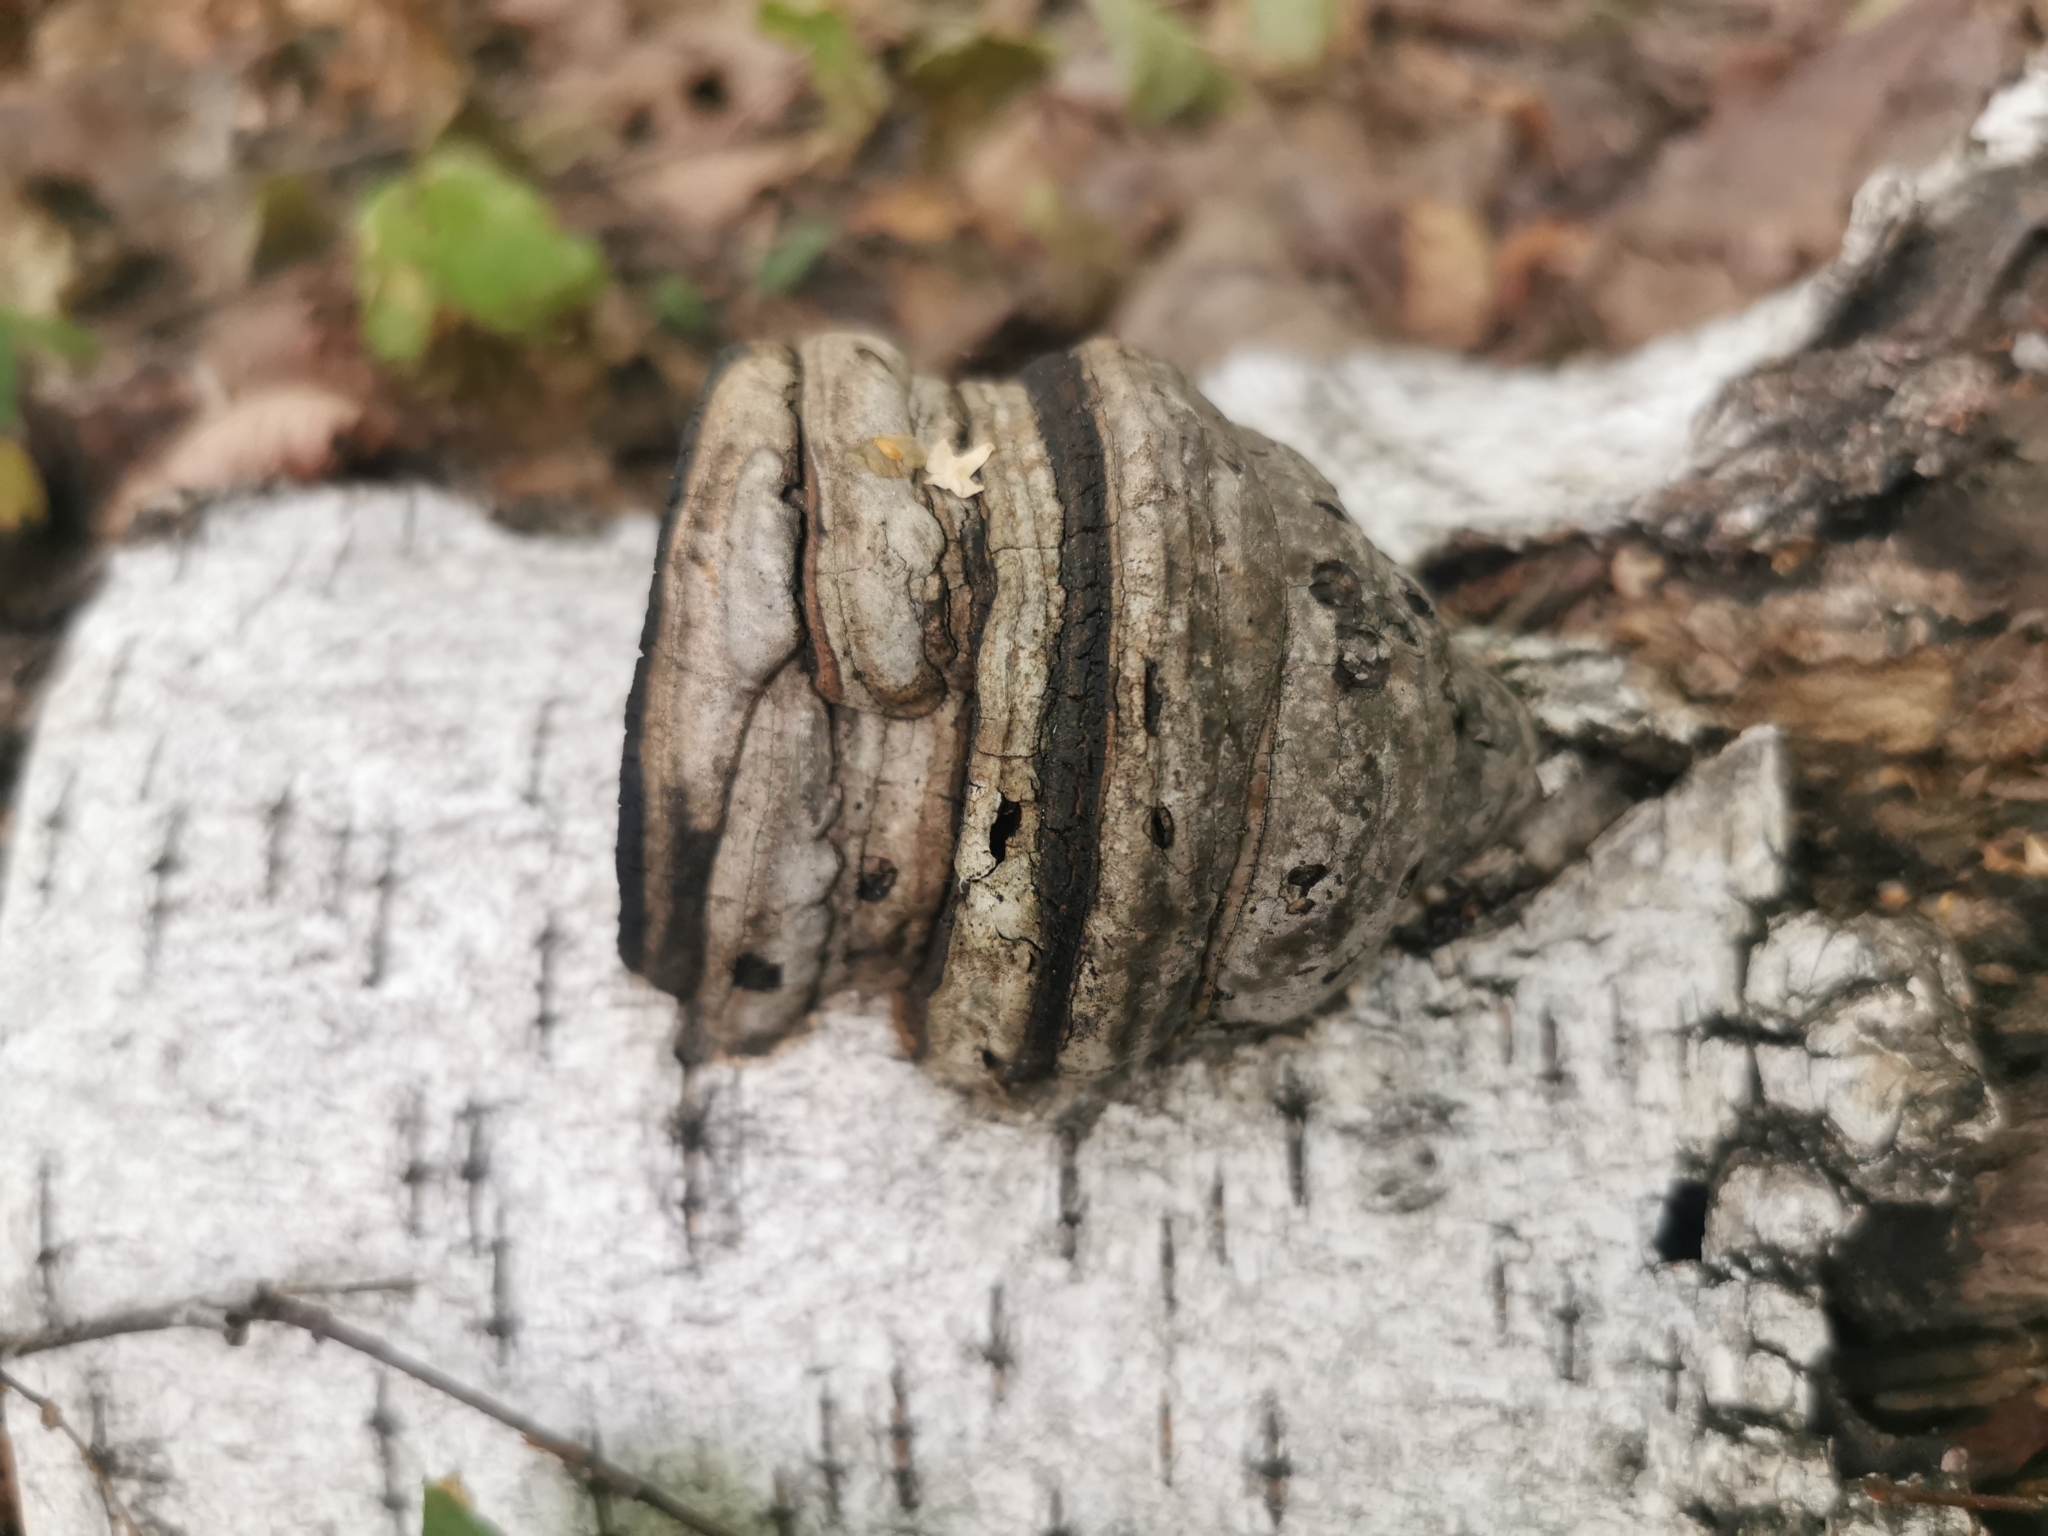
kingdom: Fungi
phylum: Basidiomycota
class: Agaricomycetes
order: Polyporales
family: Polyporaceae
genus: Fomes
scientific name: Fomes fomentarius
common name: Hoof fungus
